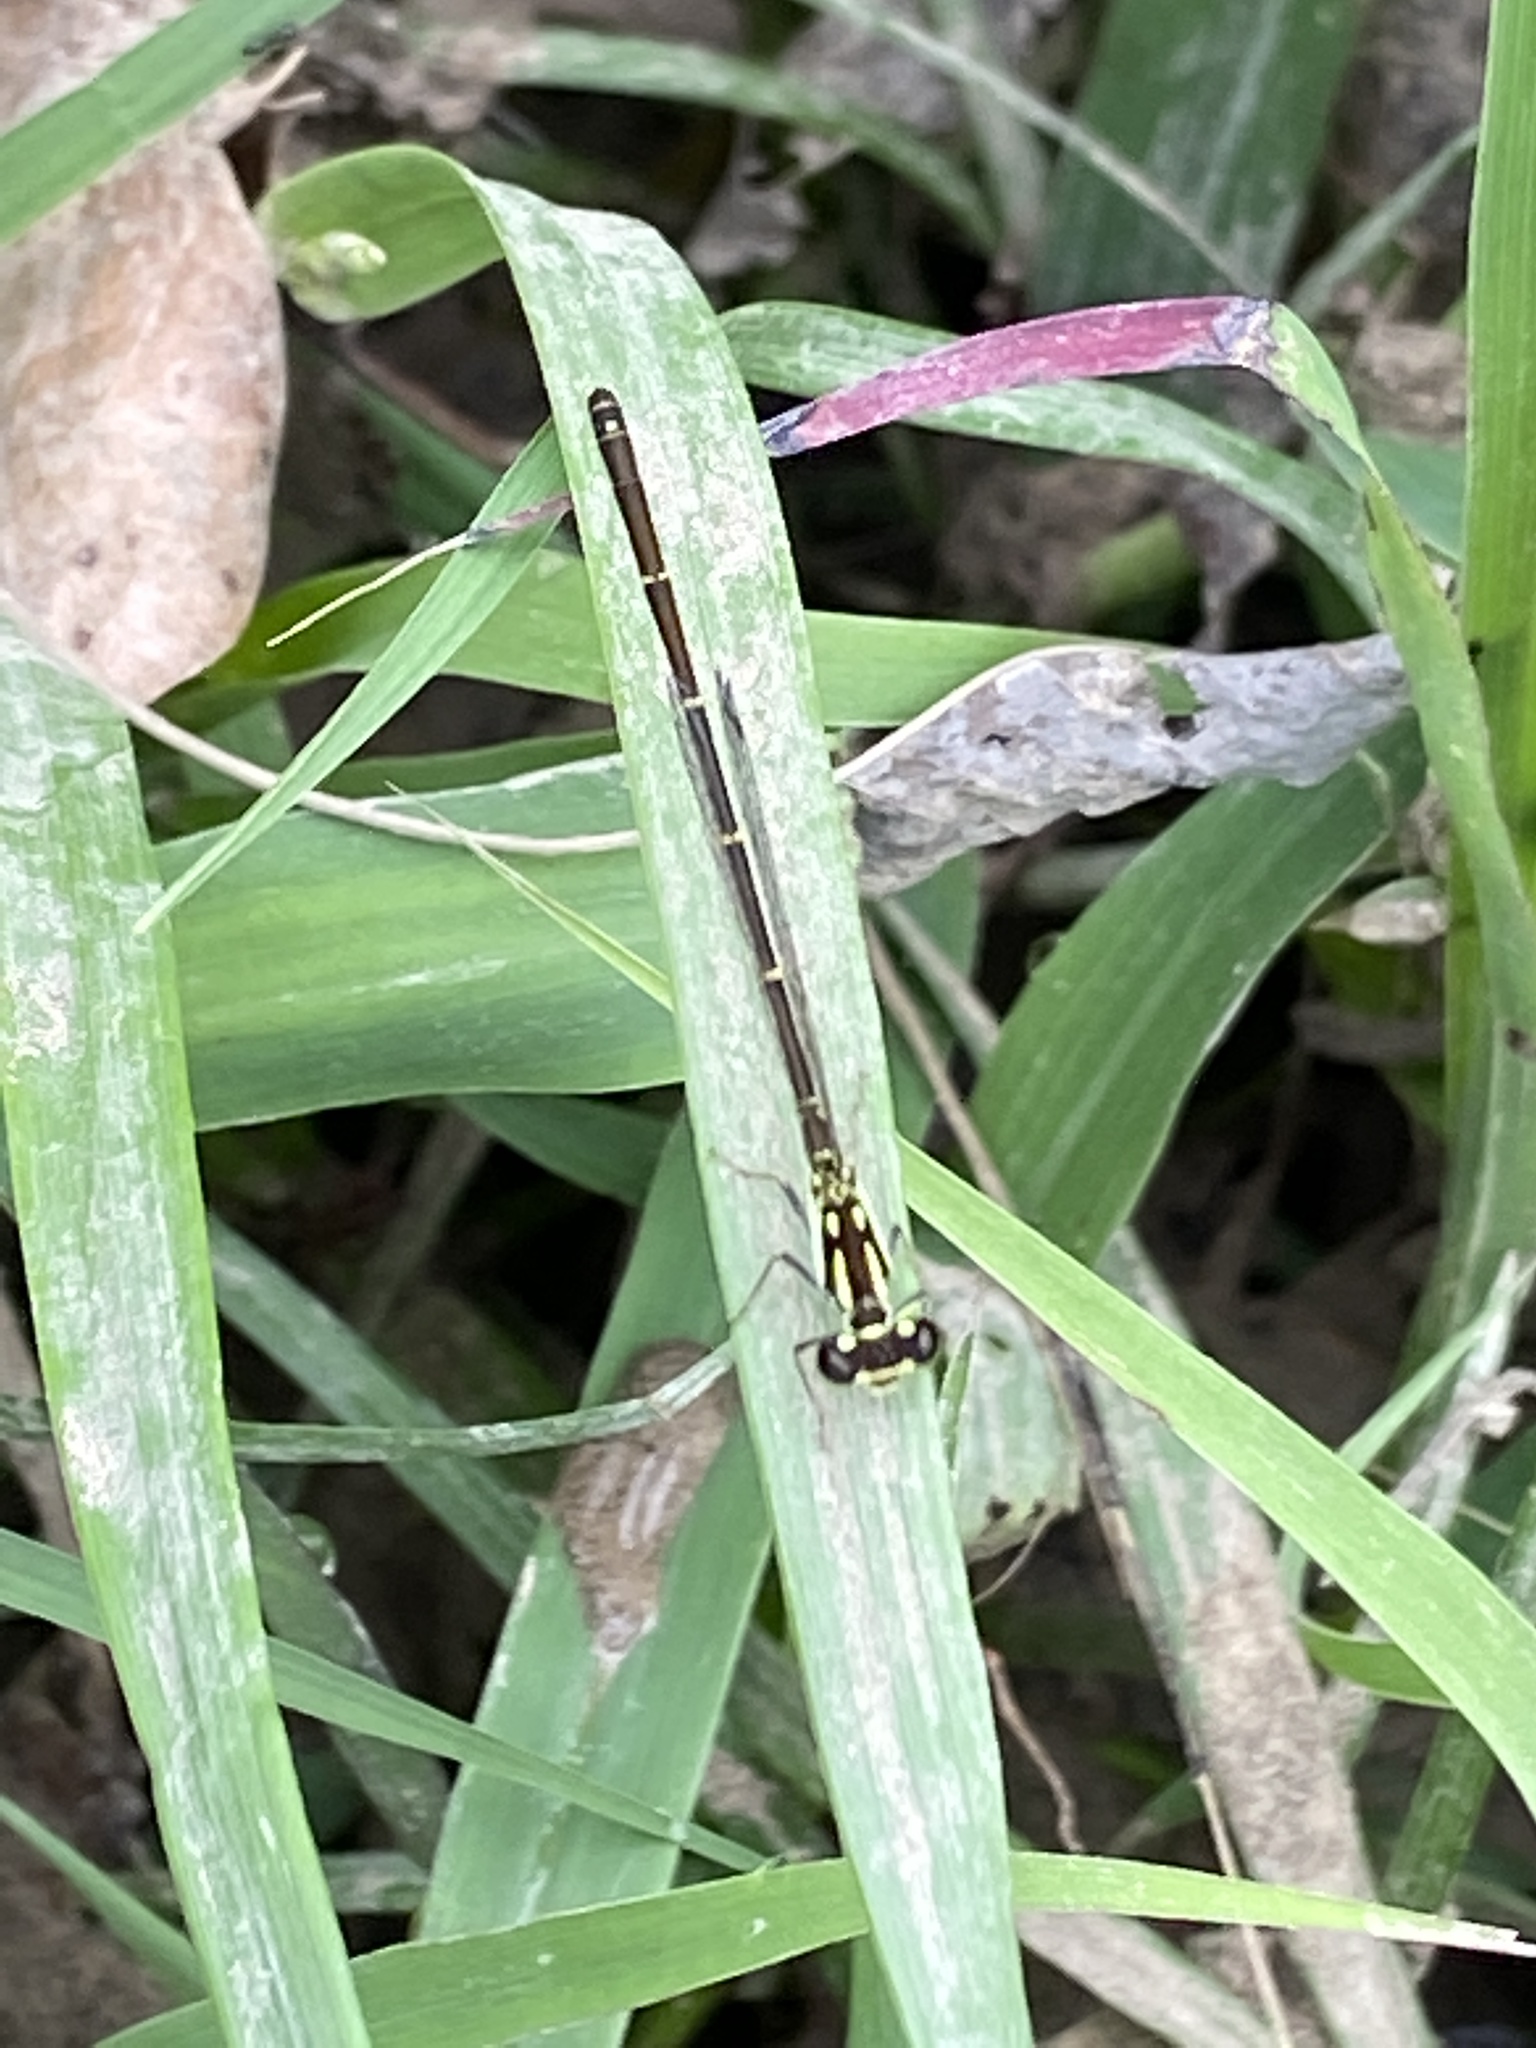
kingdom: Animalia
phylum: Arthropoda
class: Insecta
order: Odonata
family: Coenagrionidae
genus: Ischnura
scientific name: Ischnura posita
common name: Fragile forktail
